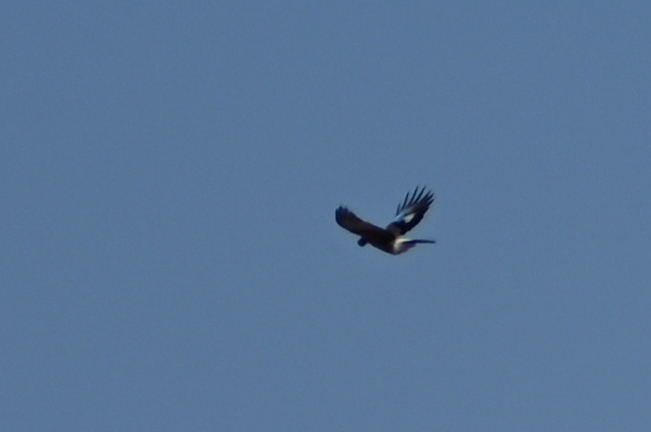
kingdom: Animalia
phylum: Chordata
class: Aves
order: Passeriformes
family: Corvidae
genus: Garrulus
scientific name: Garrulus glandarius
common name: Eurasian jay
